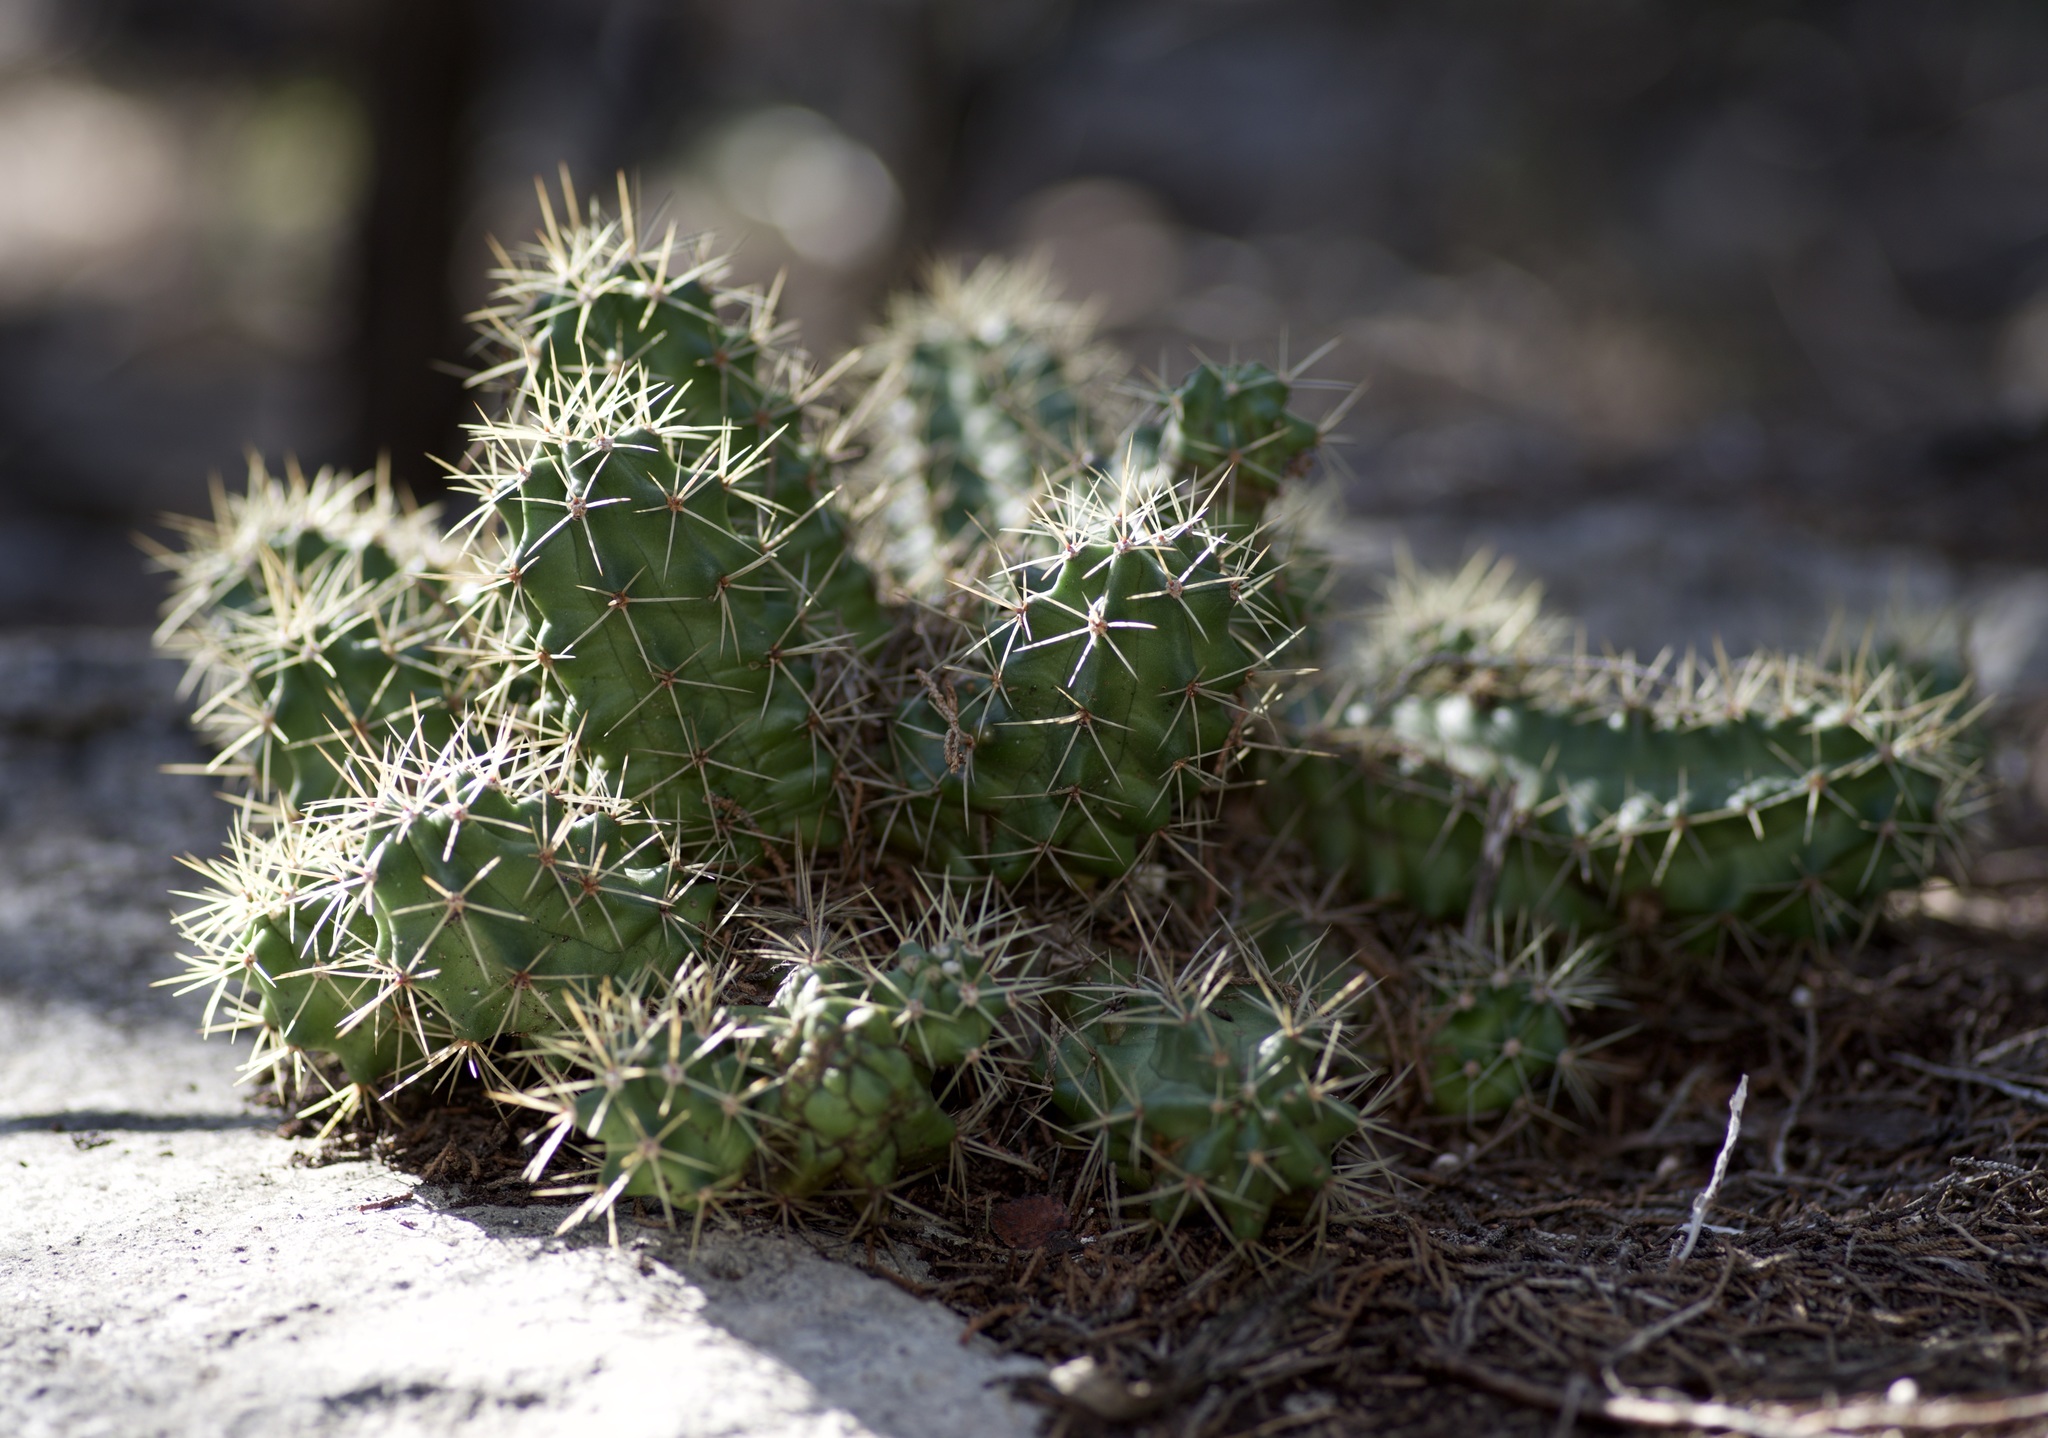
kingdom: Plantae
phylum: Tracheophyta
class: Magnoliopsida
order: Caryophyllales
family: Cactaceae
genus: Echinocereus
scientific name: Echinocereus coccineus
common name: Scarlet hedgehog cactus
